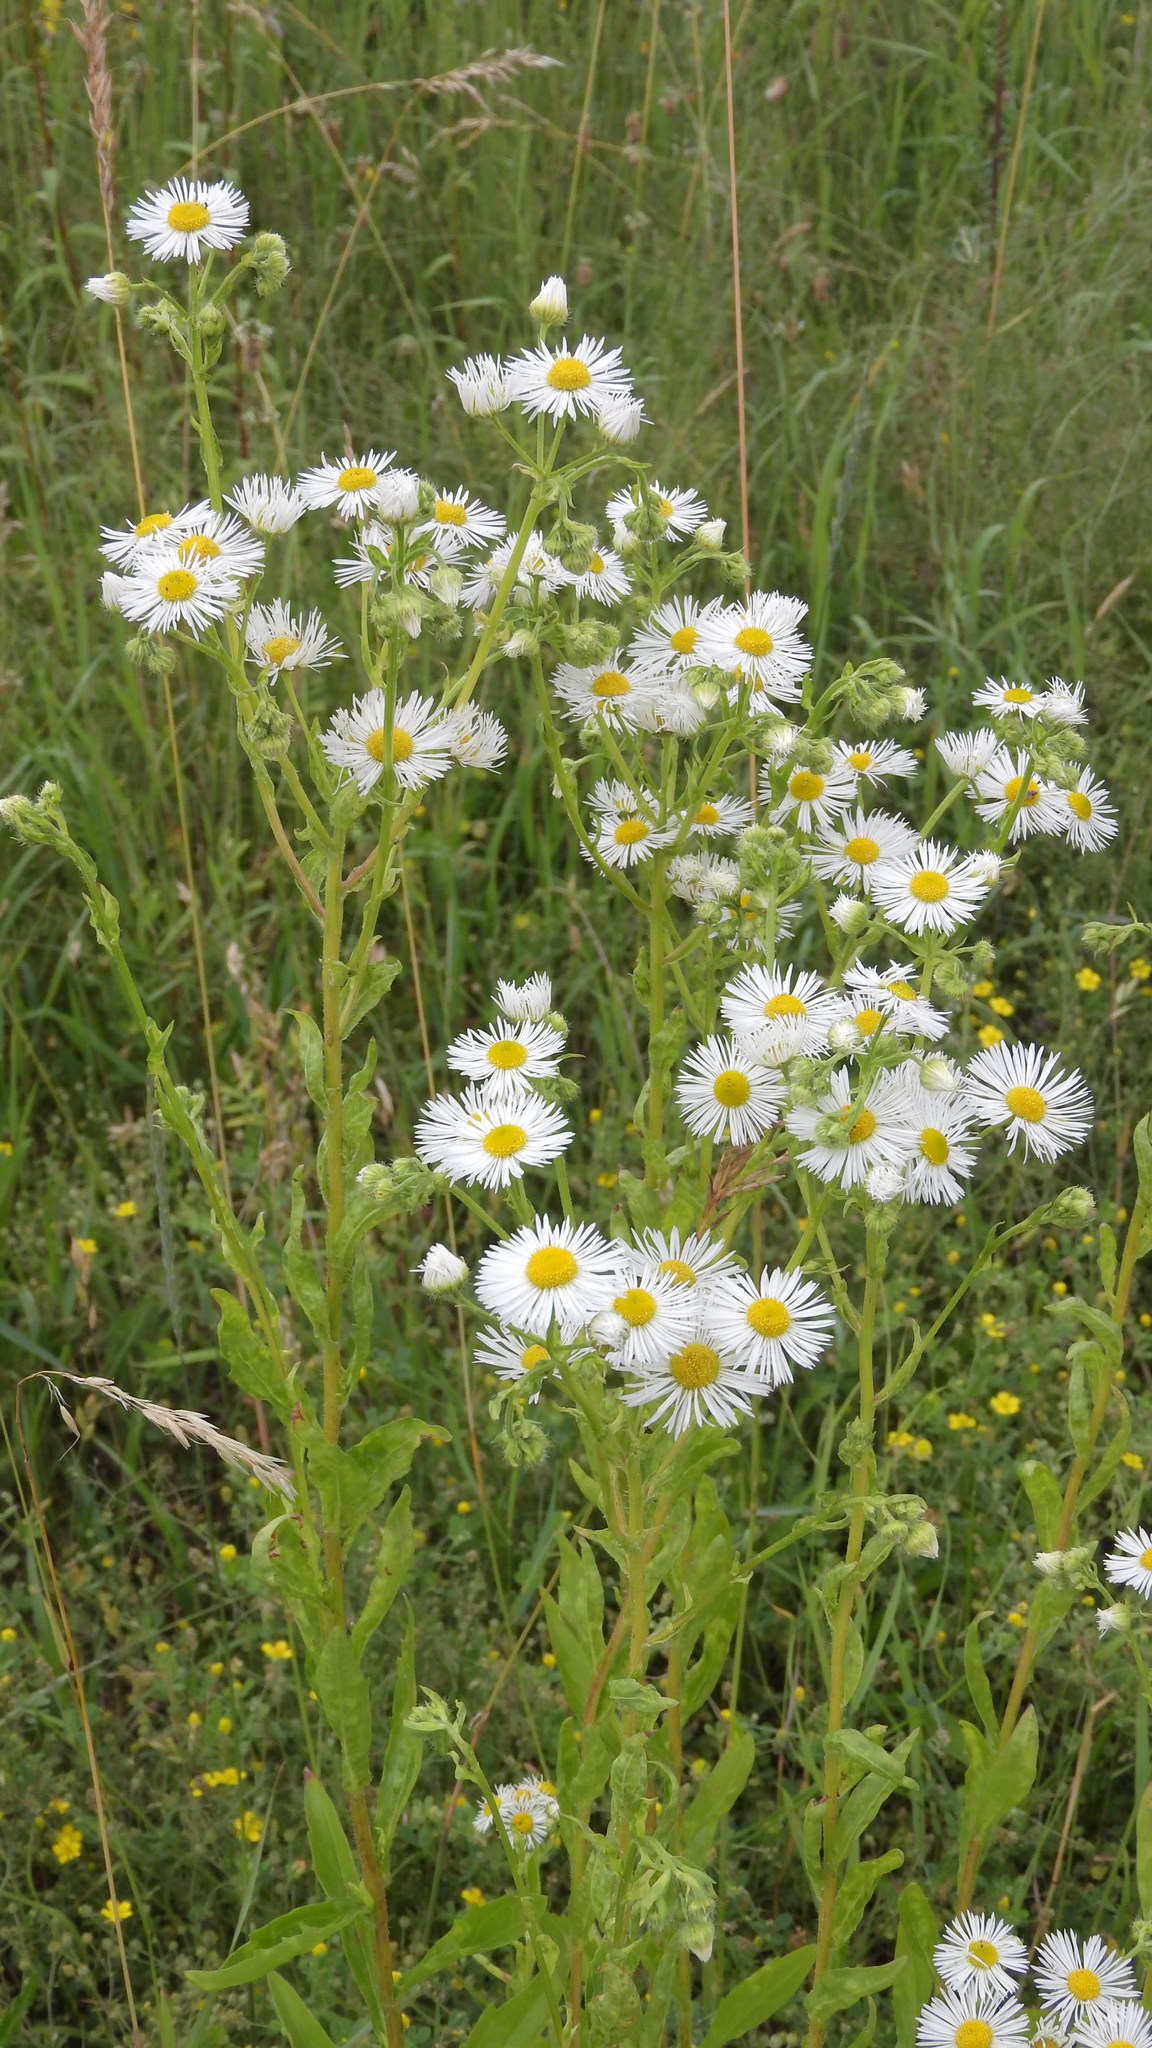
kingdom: Plantae
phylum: Tracheophyta
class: Magnoliopsida
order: Asterales
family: Asteraceae
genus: Erigeron
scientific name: Erigeron annuus
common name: Tall fleabane
